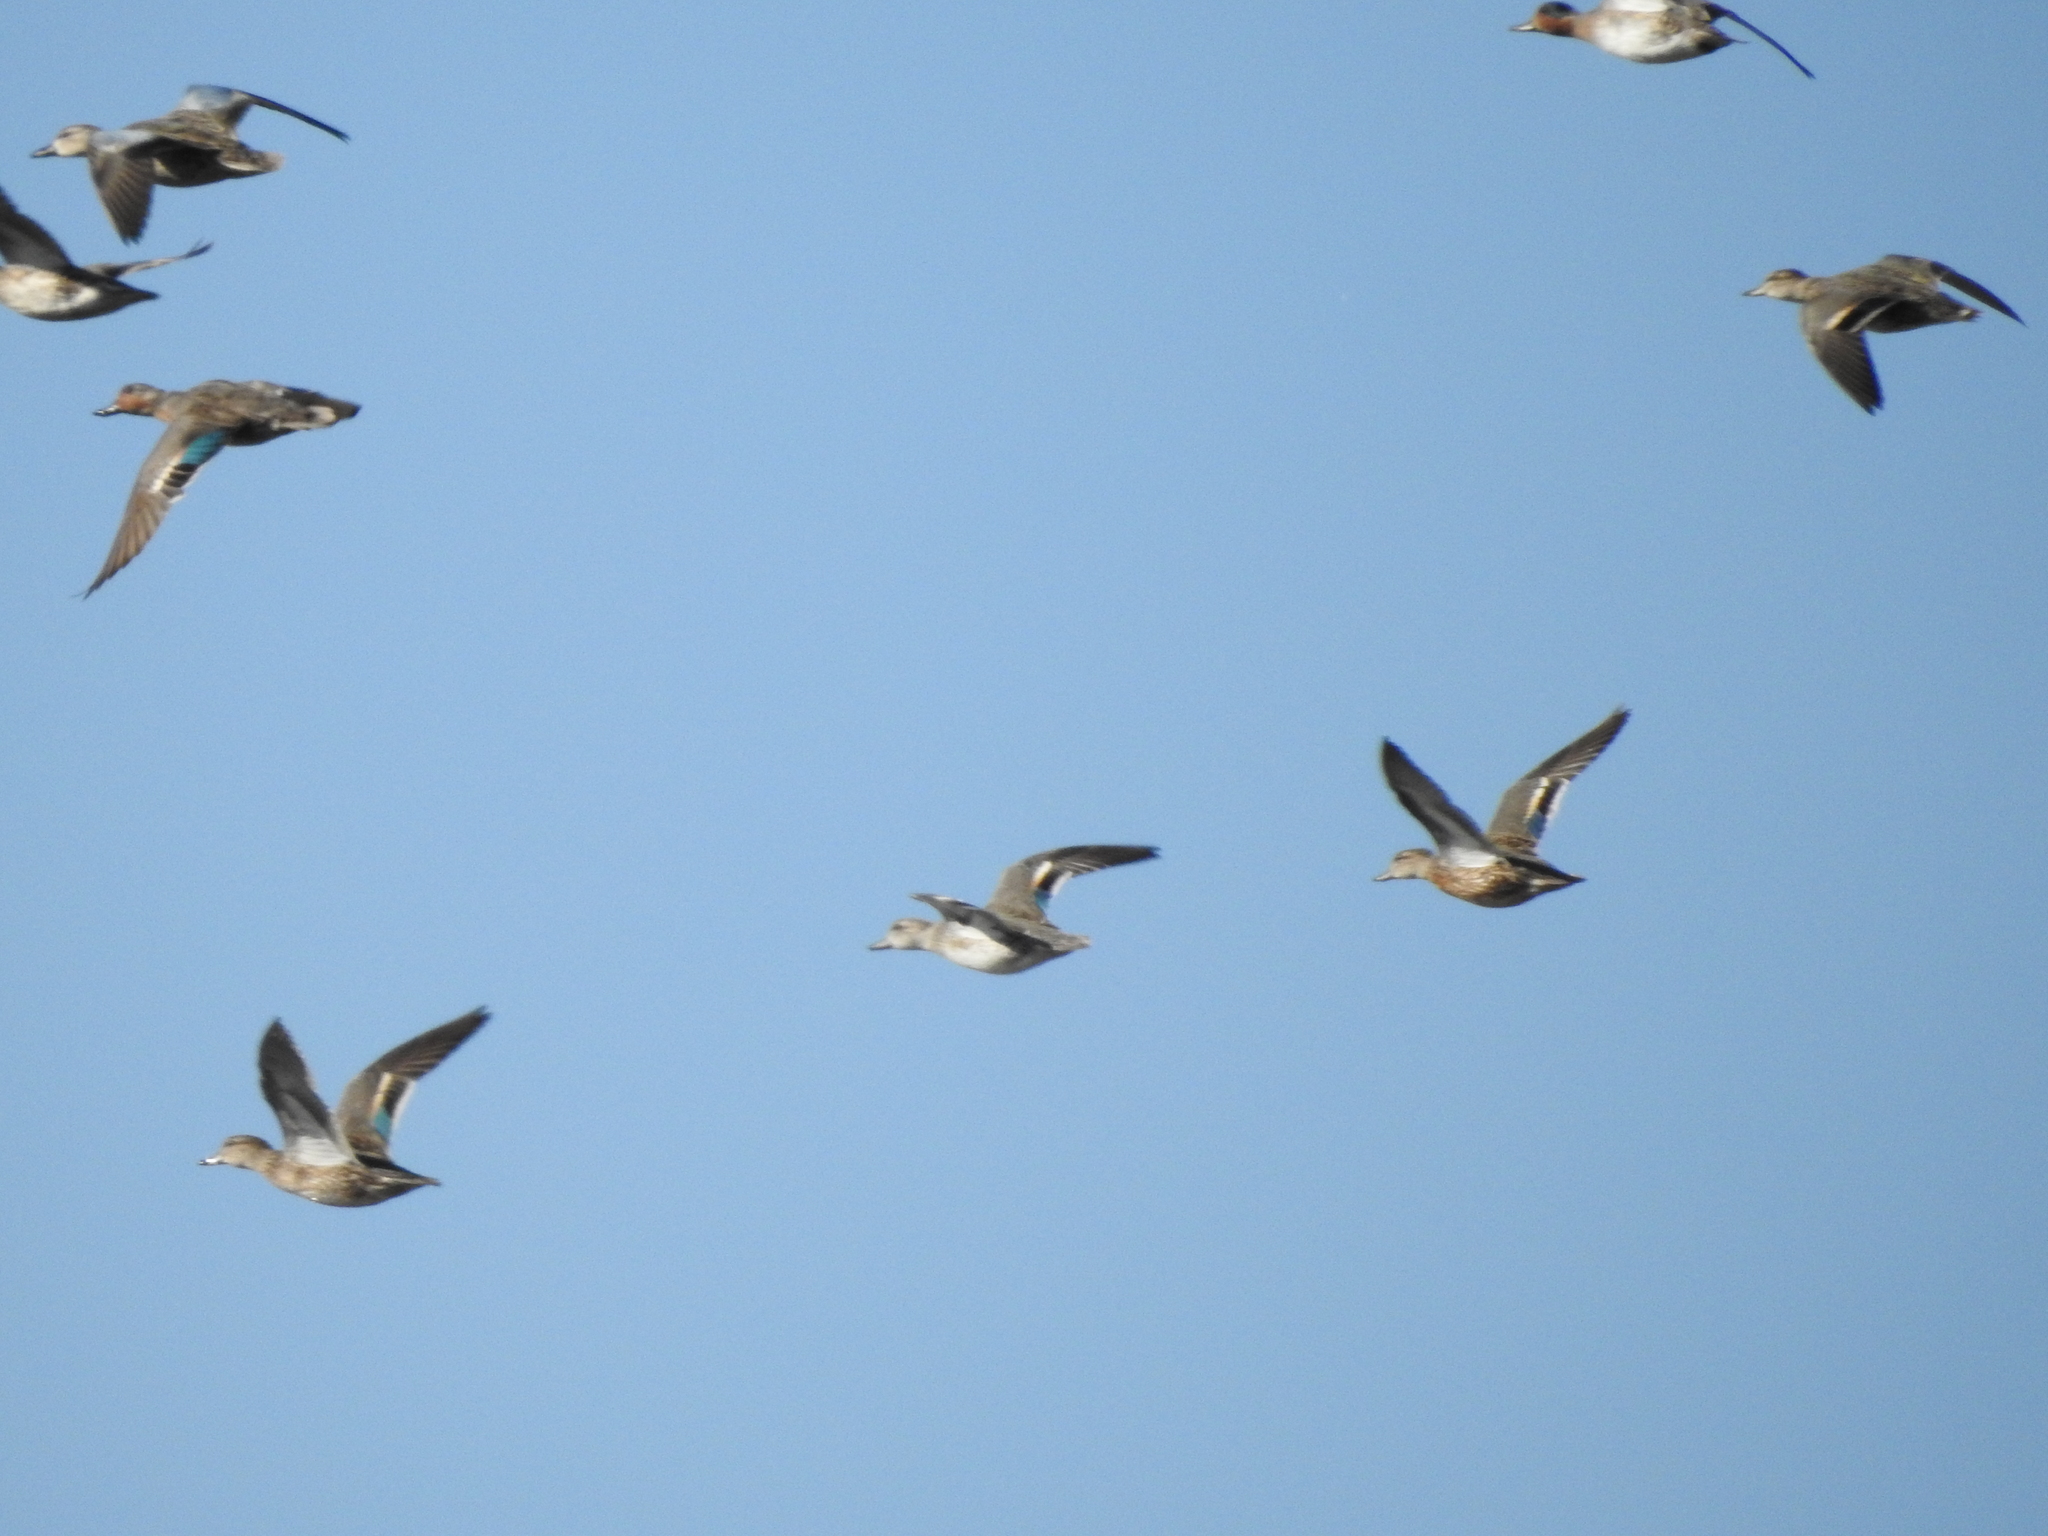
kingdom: Animalia
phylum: Chordata
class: Aves
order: Anseriformes
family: Anatidae
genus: Anas
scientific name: Anas crecca
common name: Eurasian teal
